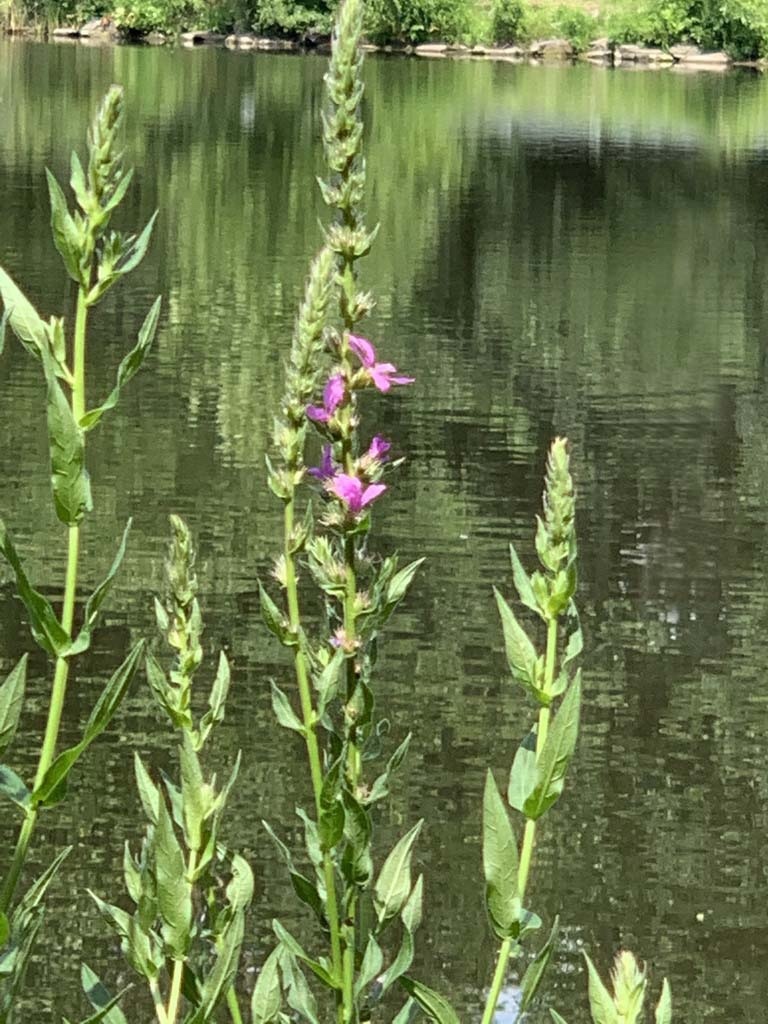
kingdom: Plantae
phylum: Tracheophyta
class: Magnoliopsida
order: Myrtales
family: Lythraceae
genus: Lythrum
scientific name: Lythrum salicaria
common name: Purple loosestrife
